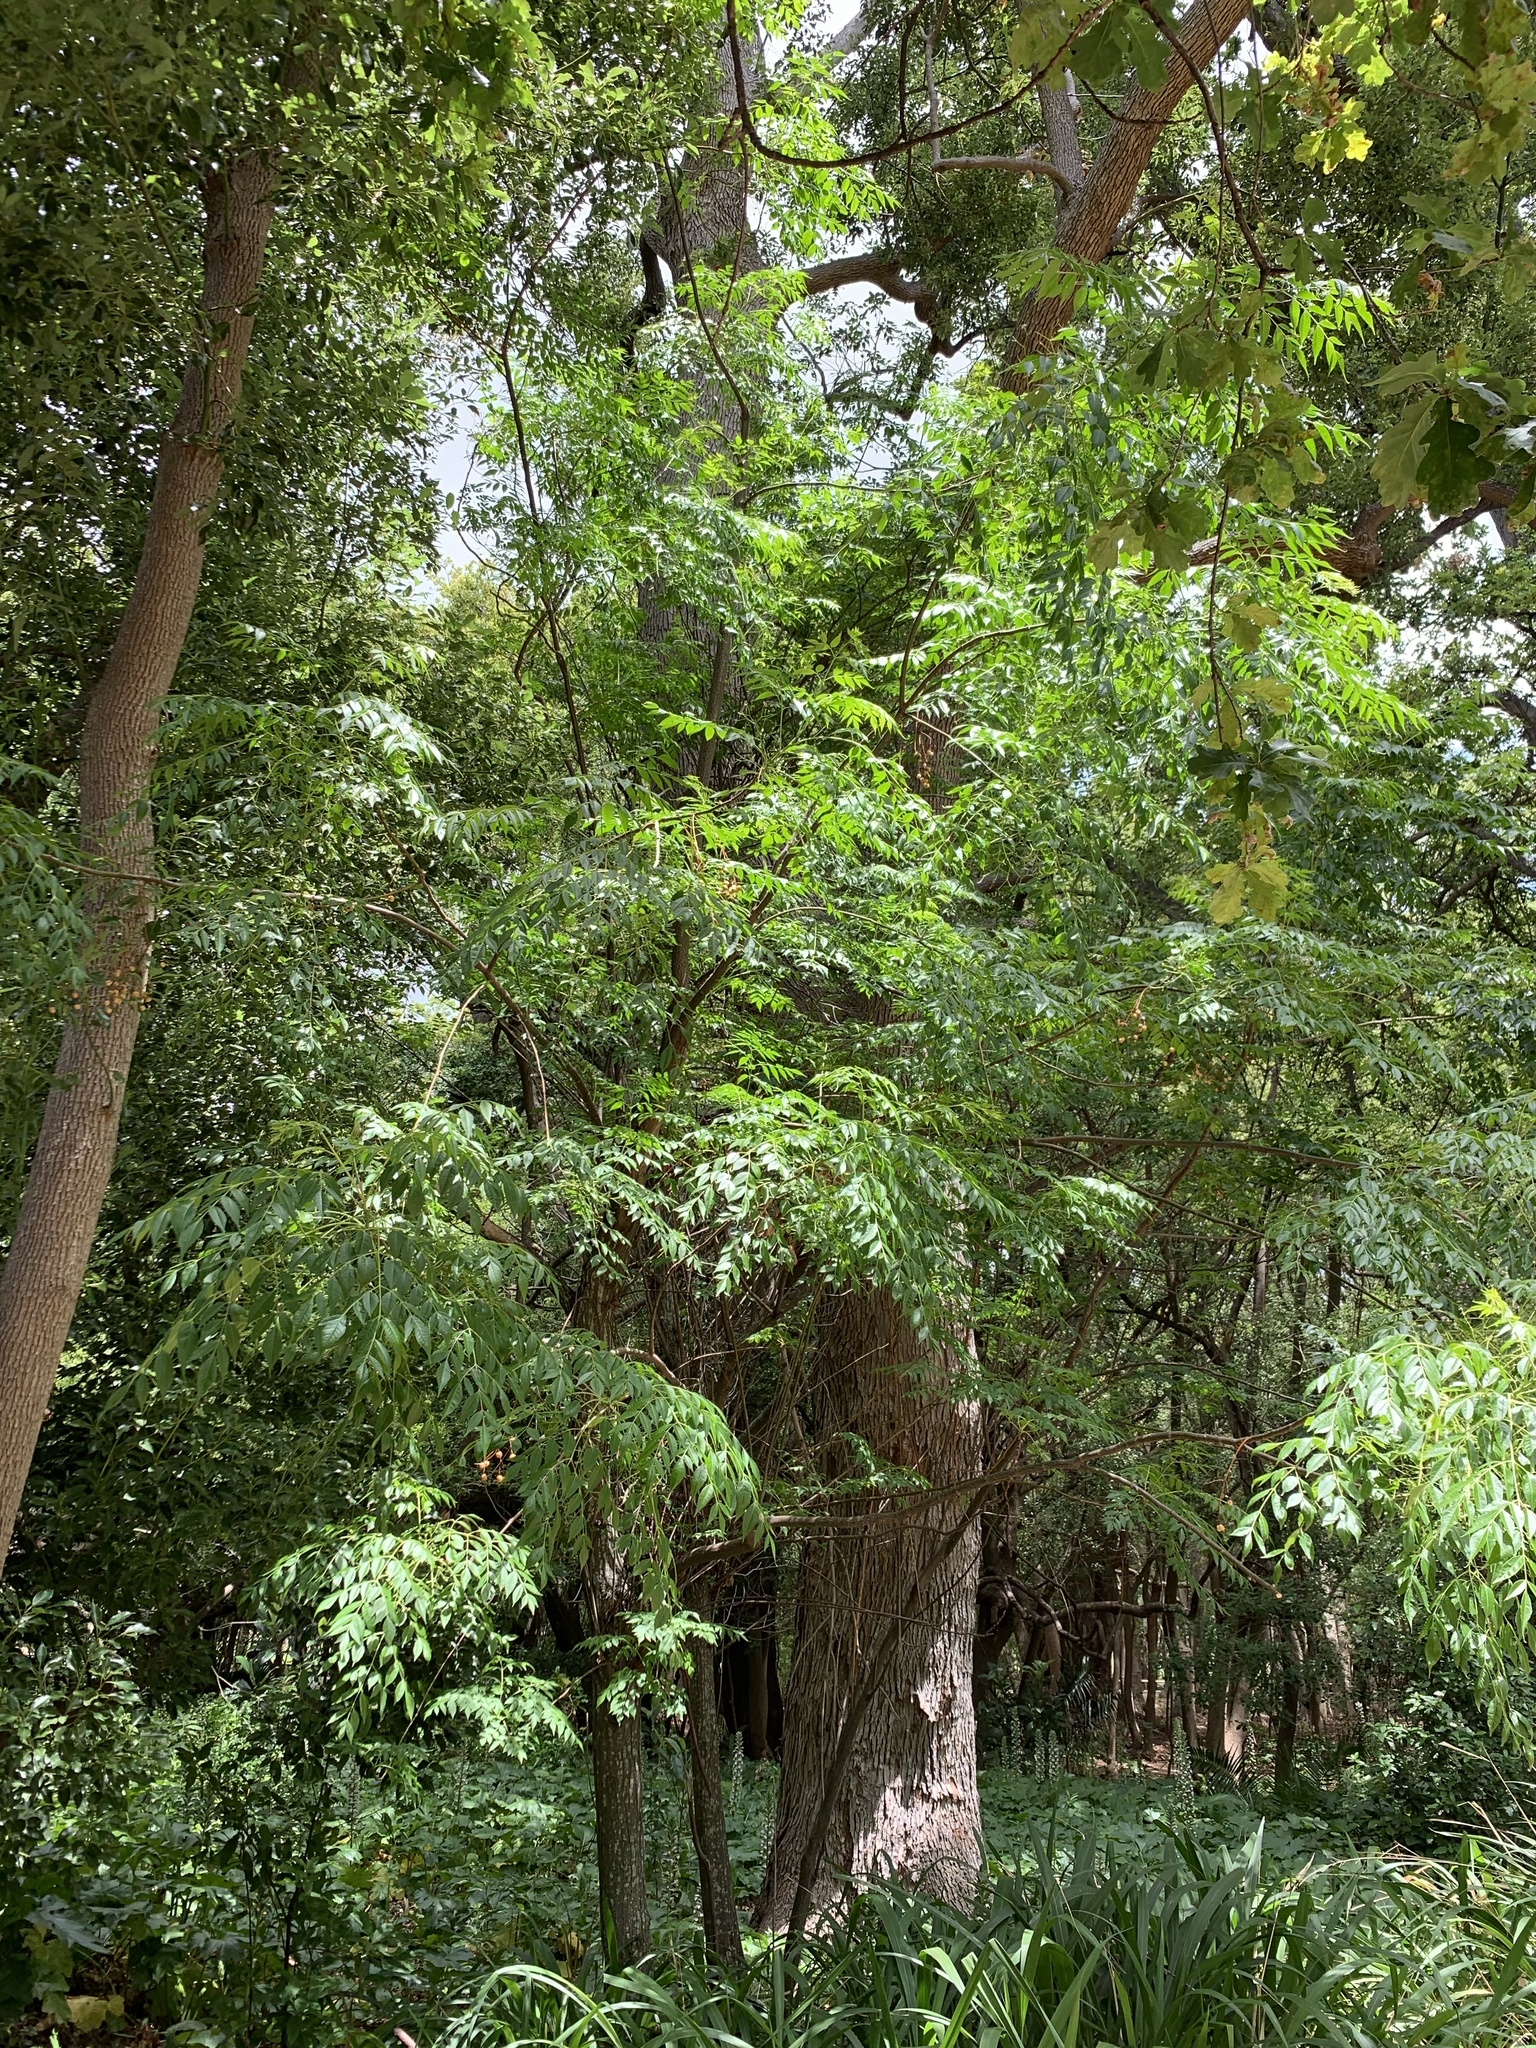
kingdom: Plantae
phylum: Tracheophyta
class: Magnoliopsida
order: Sapindales
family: Meliaceae
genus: Melia
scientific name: Melia azedarach
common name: Chinaberrytree
